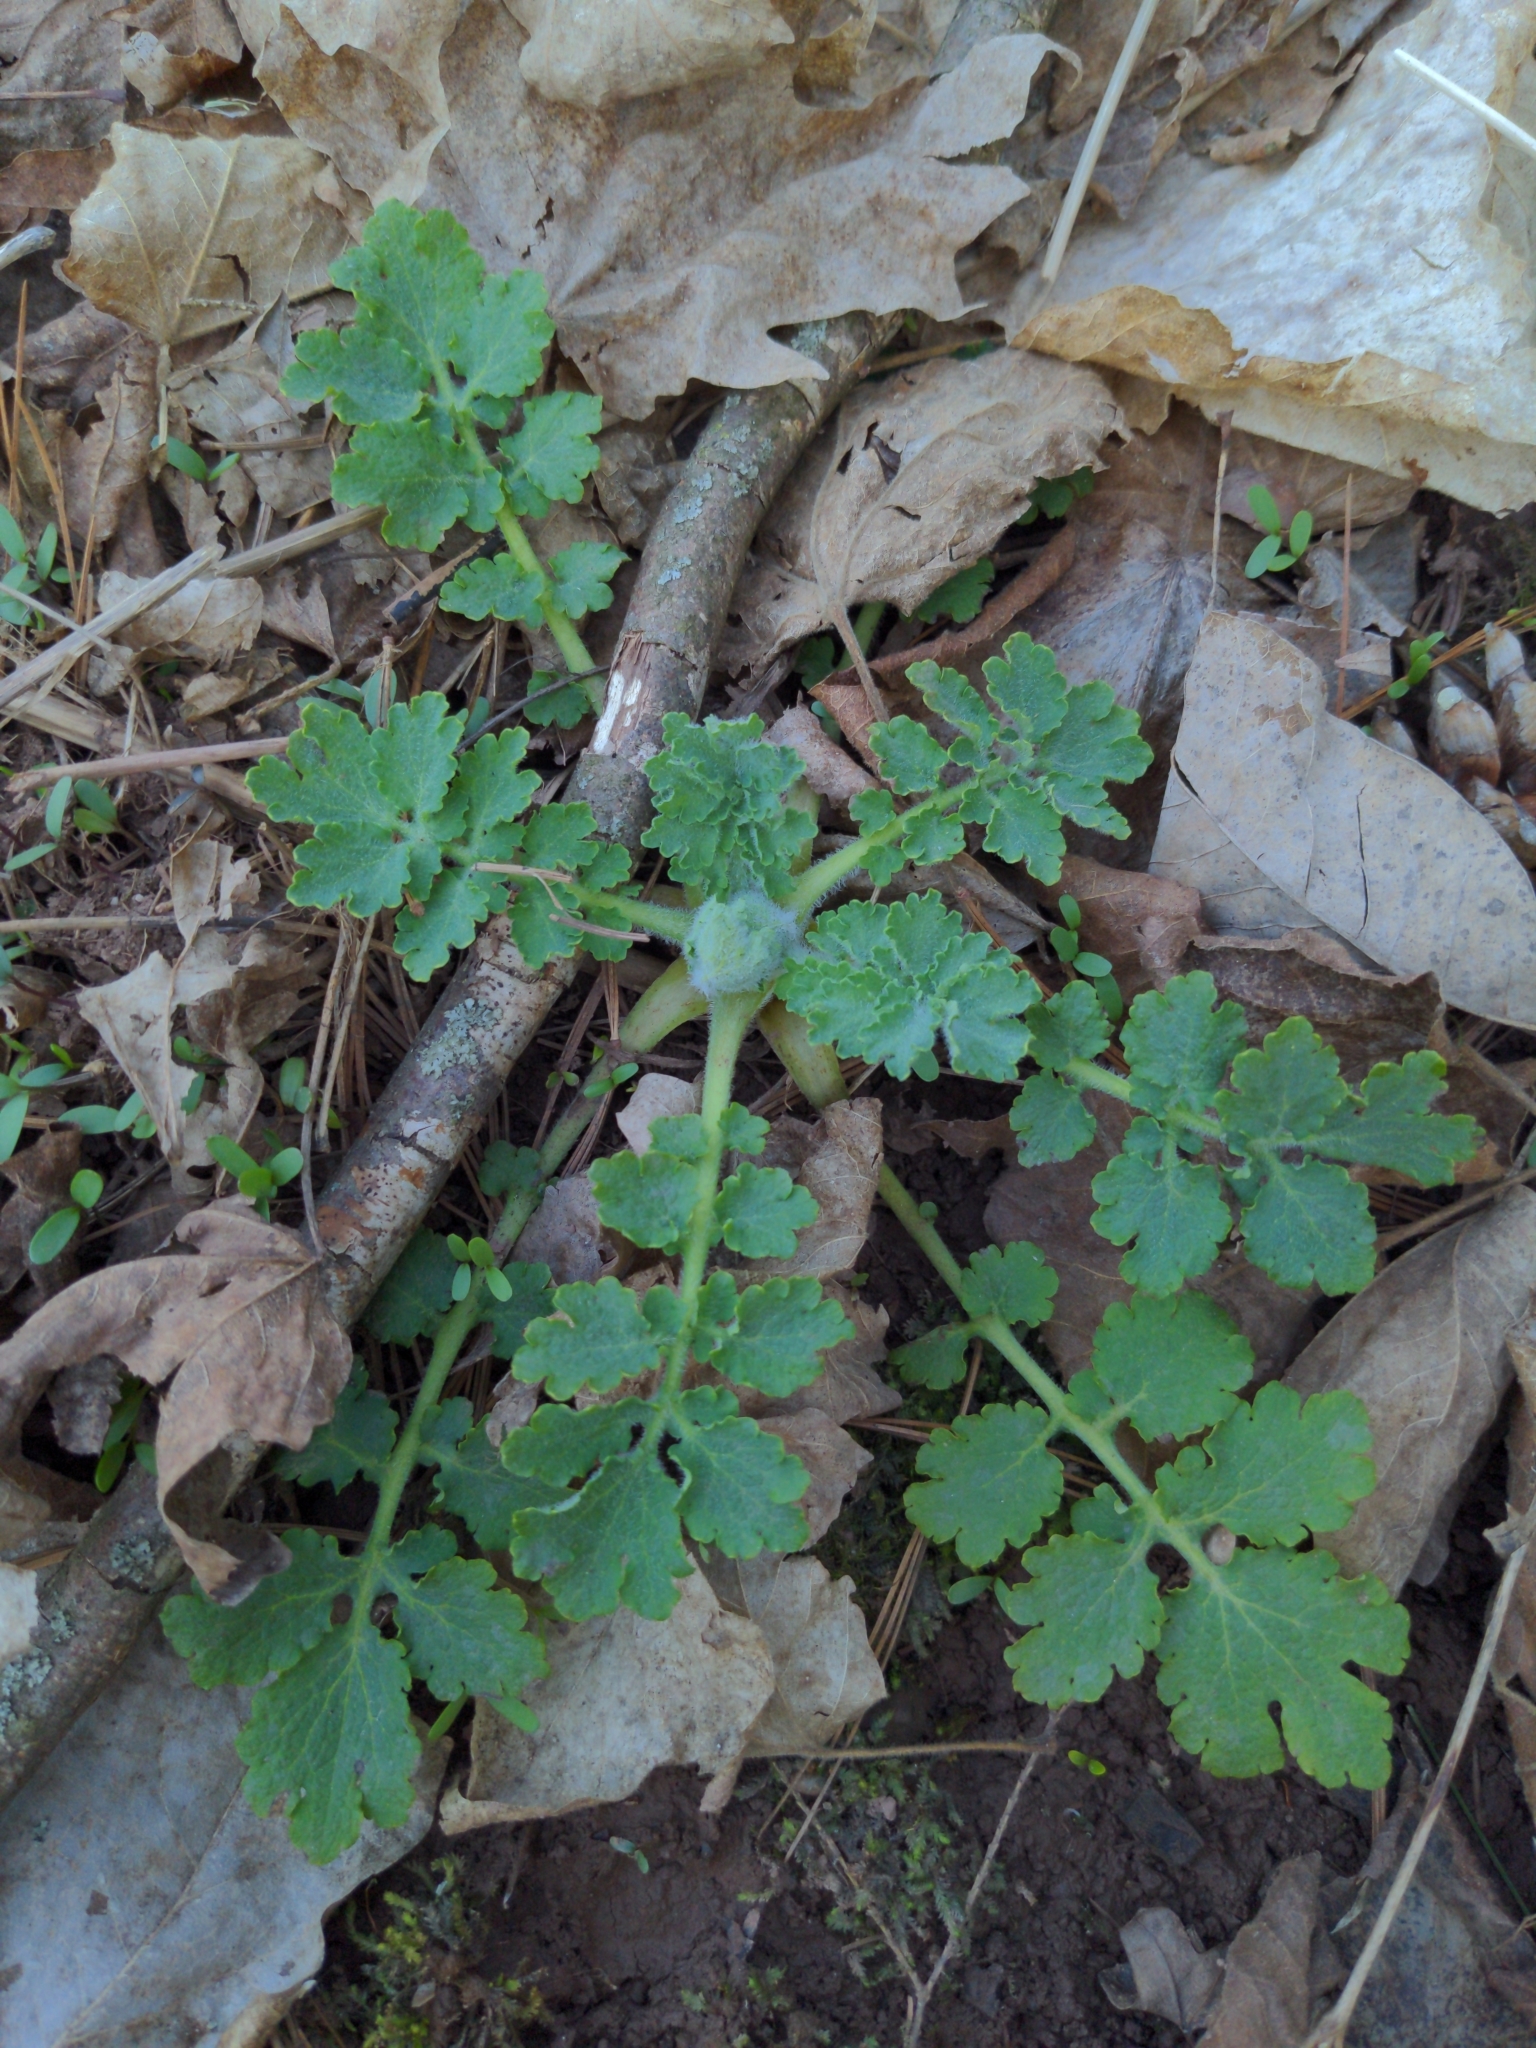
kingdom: Plantae
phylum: Tracheophyta
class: Magnoliopsida
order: Ranunculales
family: Papaveraceae
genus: Chelidonium
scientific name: Chelidonium majus
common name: Greater celandine
